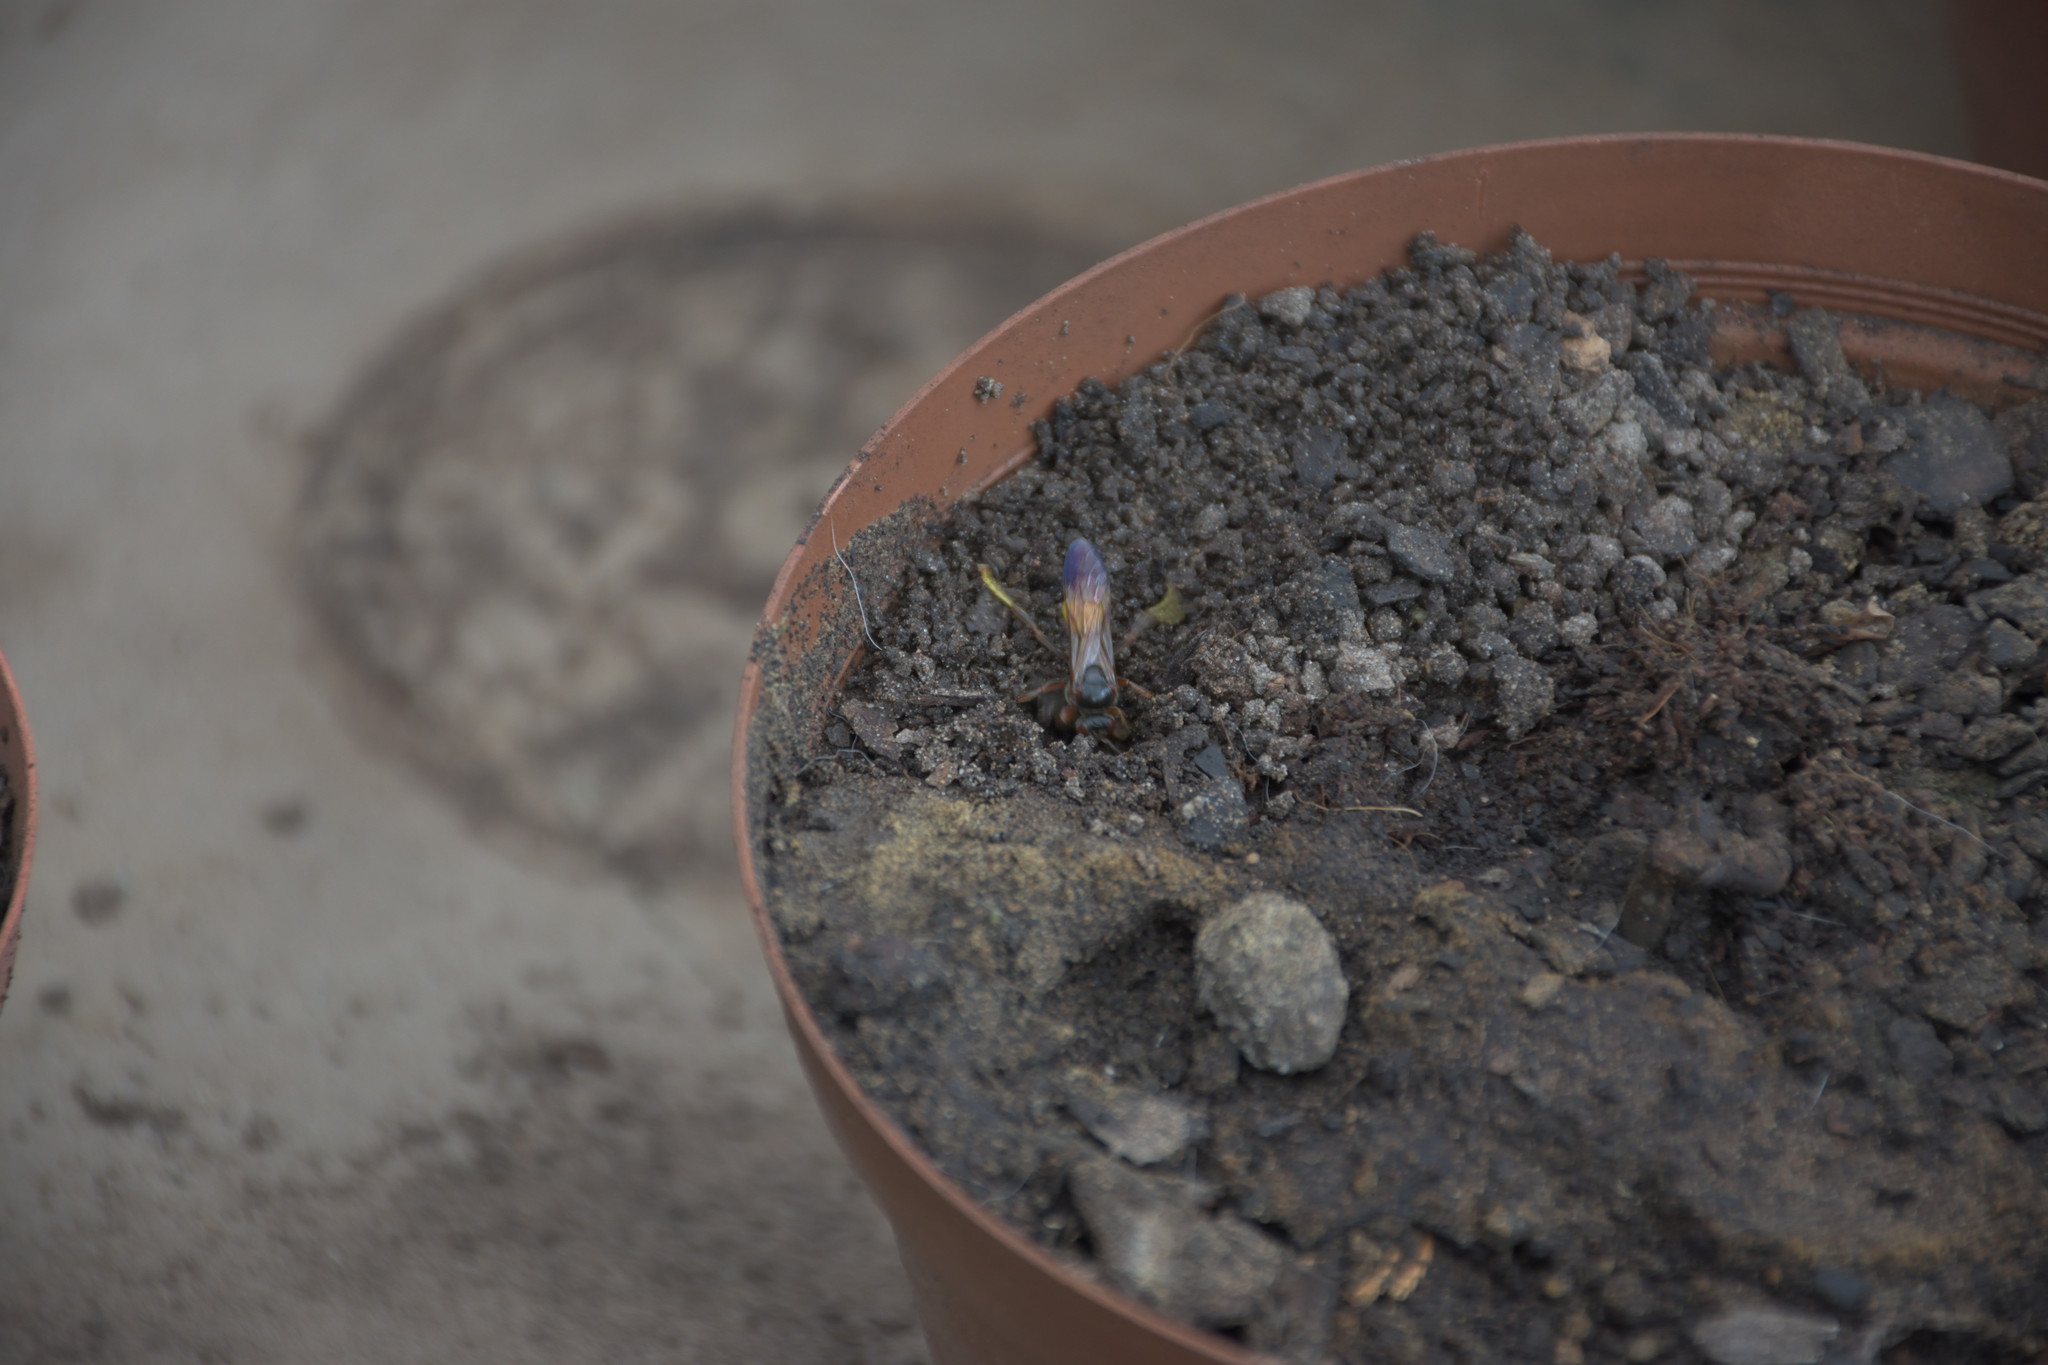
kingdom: Animalia
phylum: Arthropoda
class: Insecta
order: Hymenoptera
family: Crabronidae
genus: Gorytes
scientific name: Gorytes natalensis
